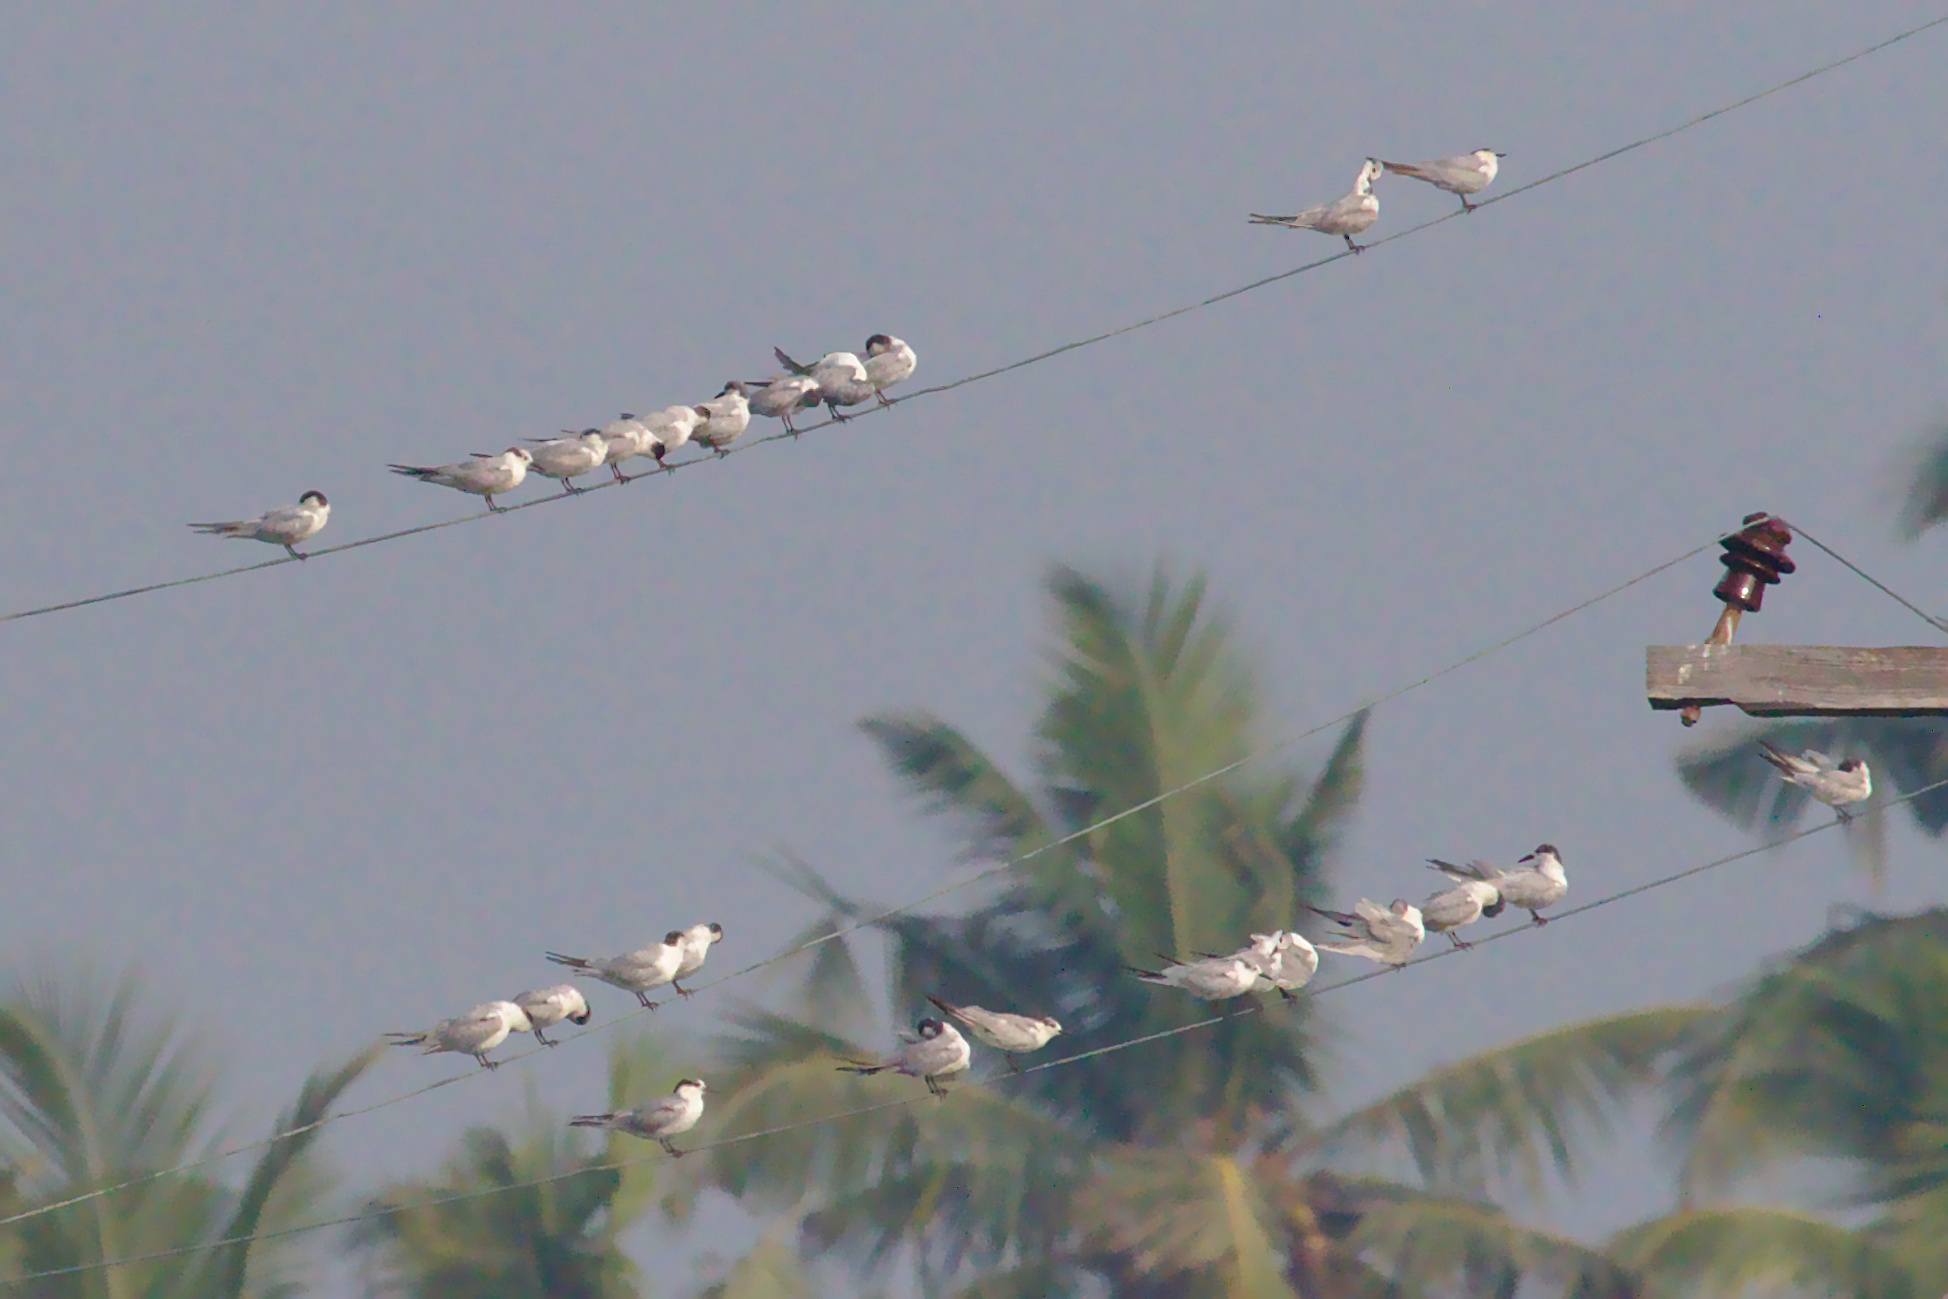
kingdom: Animalia
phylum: Chordata
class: Aves
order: Charadriiformes
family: Laridae
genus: Chlidonias
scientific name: Chlidonias hybrida
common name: Whiskered tern
